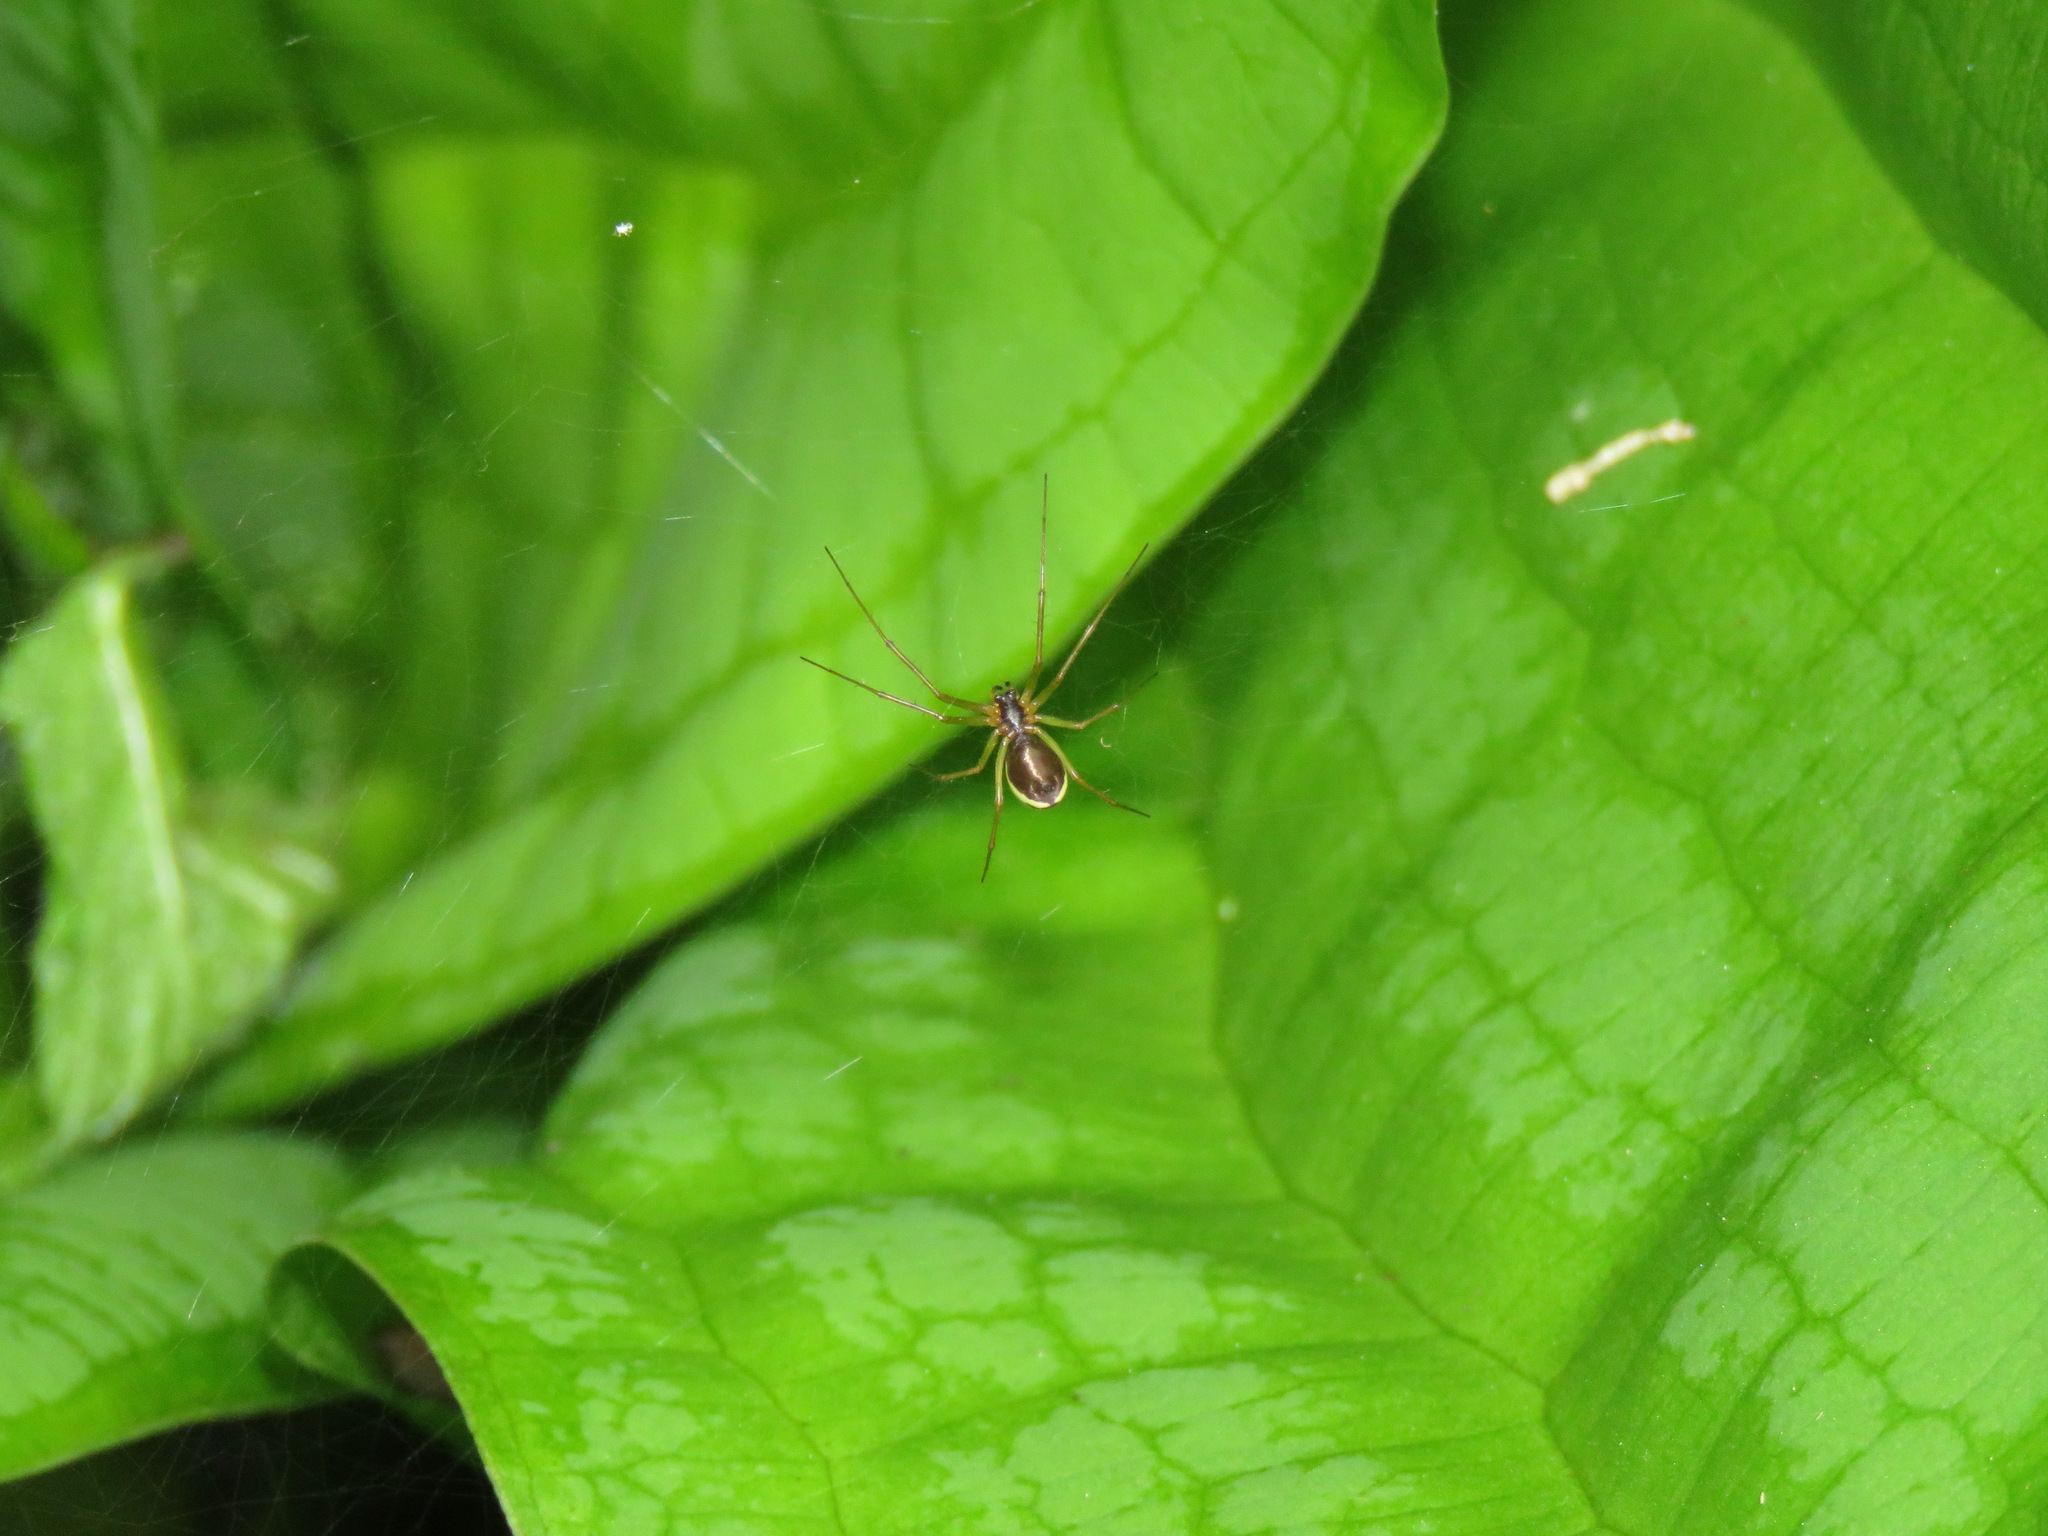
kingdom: Animalia
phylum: Arthropoda
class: Arachnida
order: Araneae
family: Linyphiidae
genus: Microlinyphia
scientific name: Microlinyphia dana
